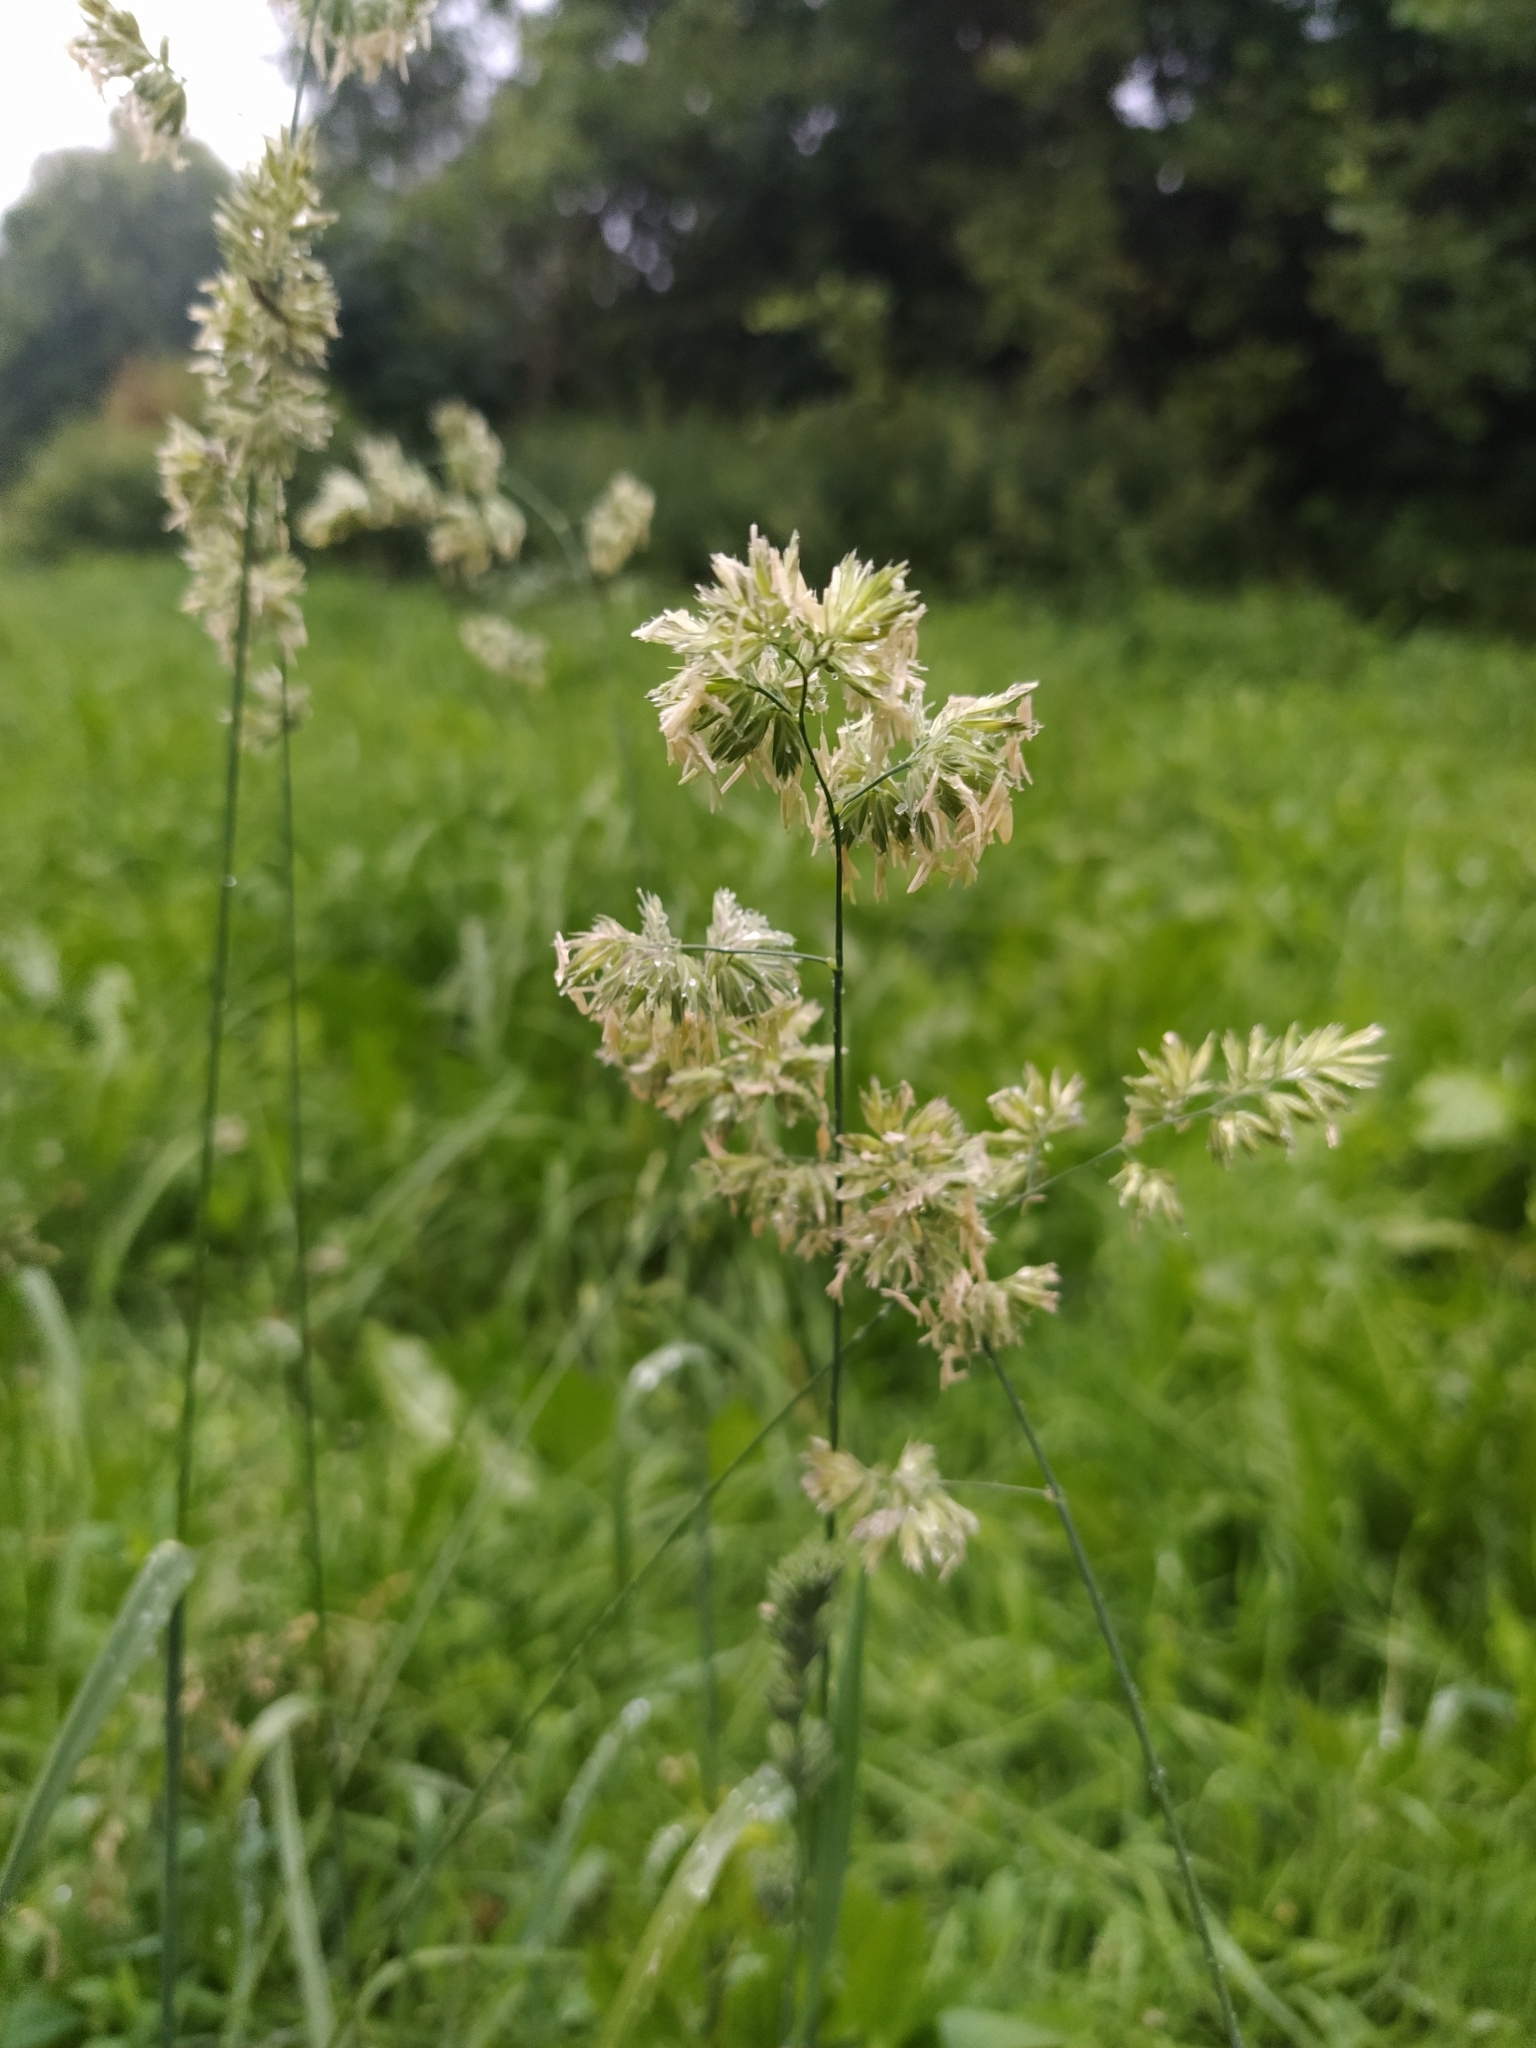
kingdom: Plantae
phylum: Tracheophyta
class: Liliopsida
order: Poales
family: Poaceae
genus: Dactylis
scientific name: Dactylis glomerata
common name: Orchardgrass
